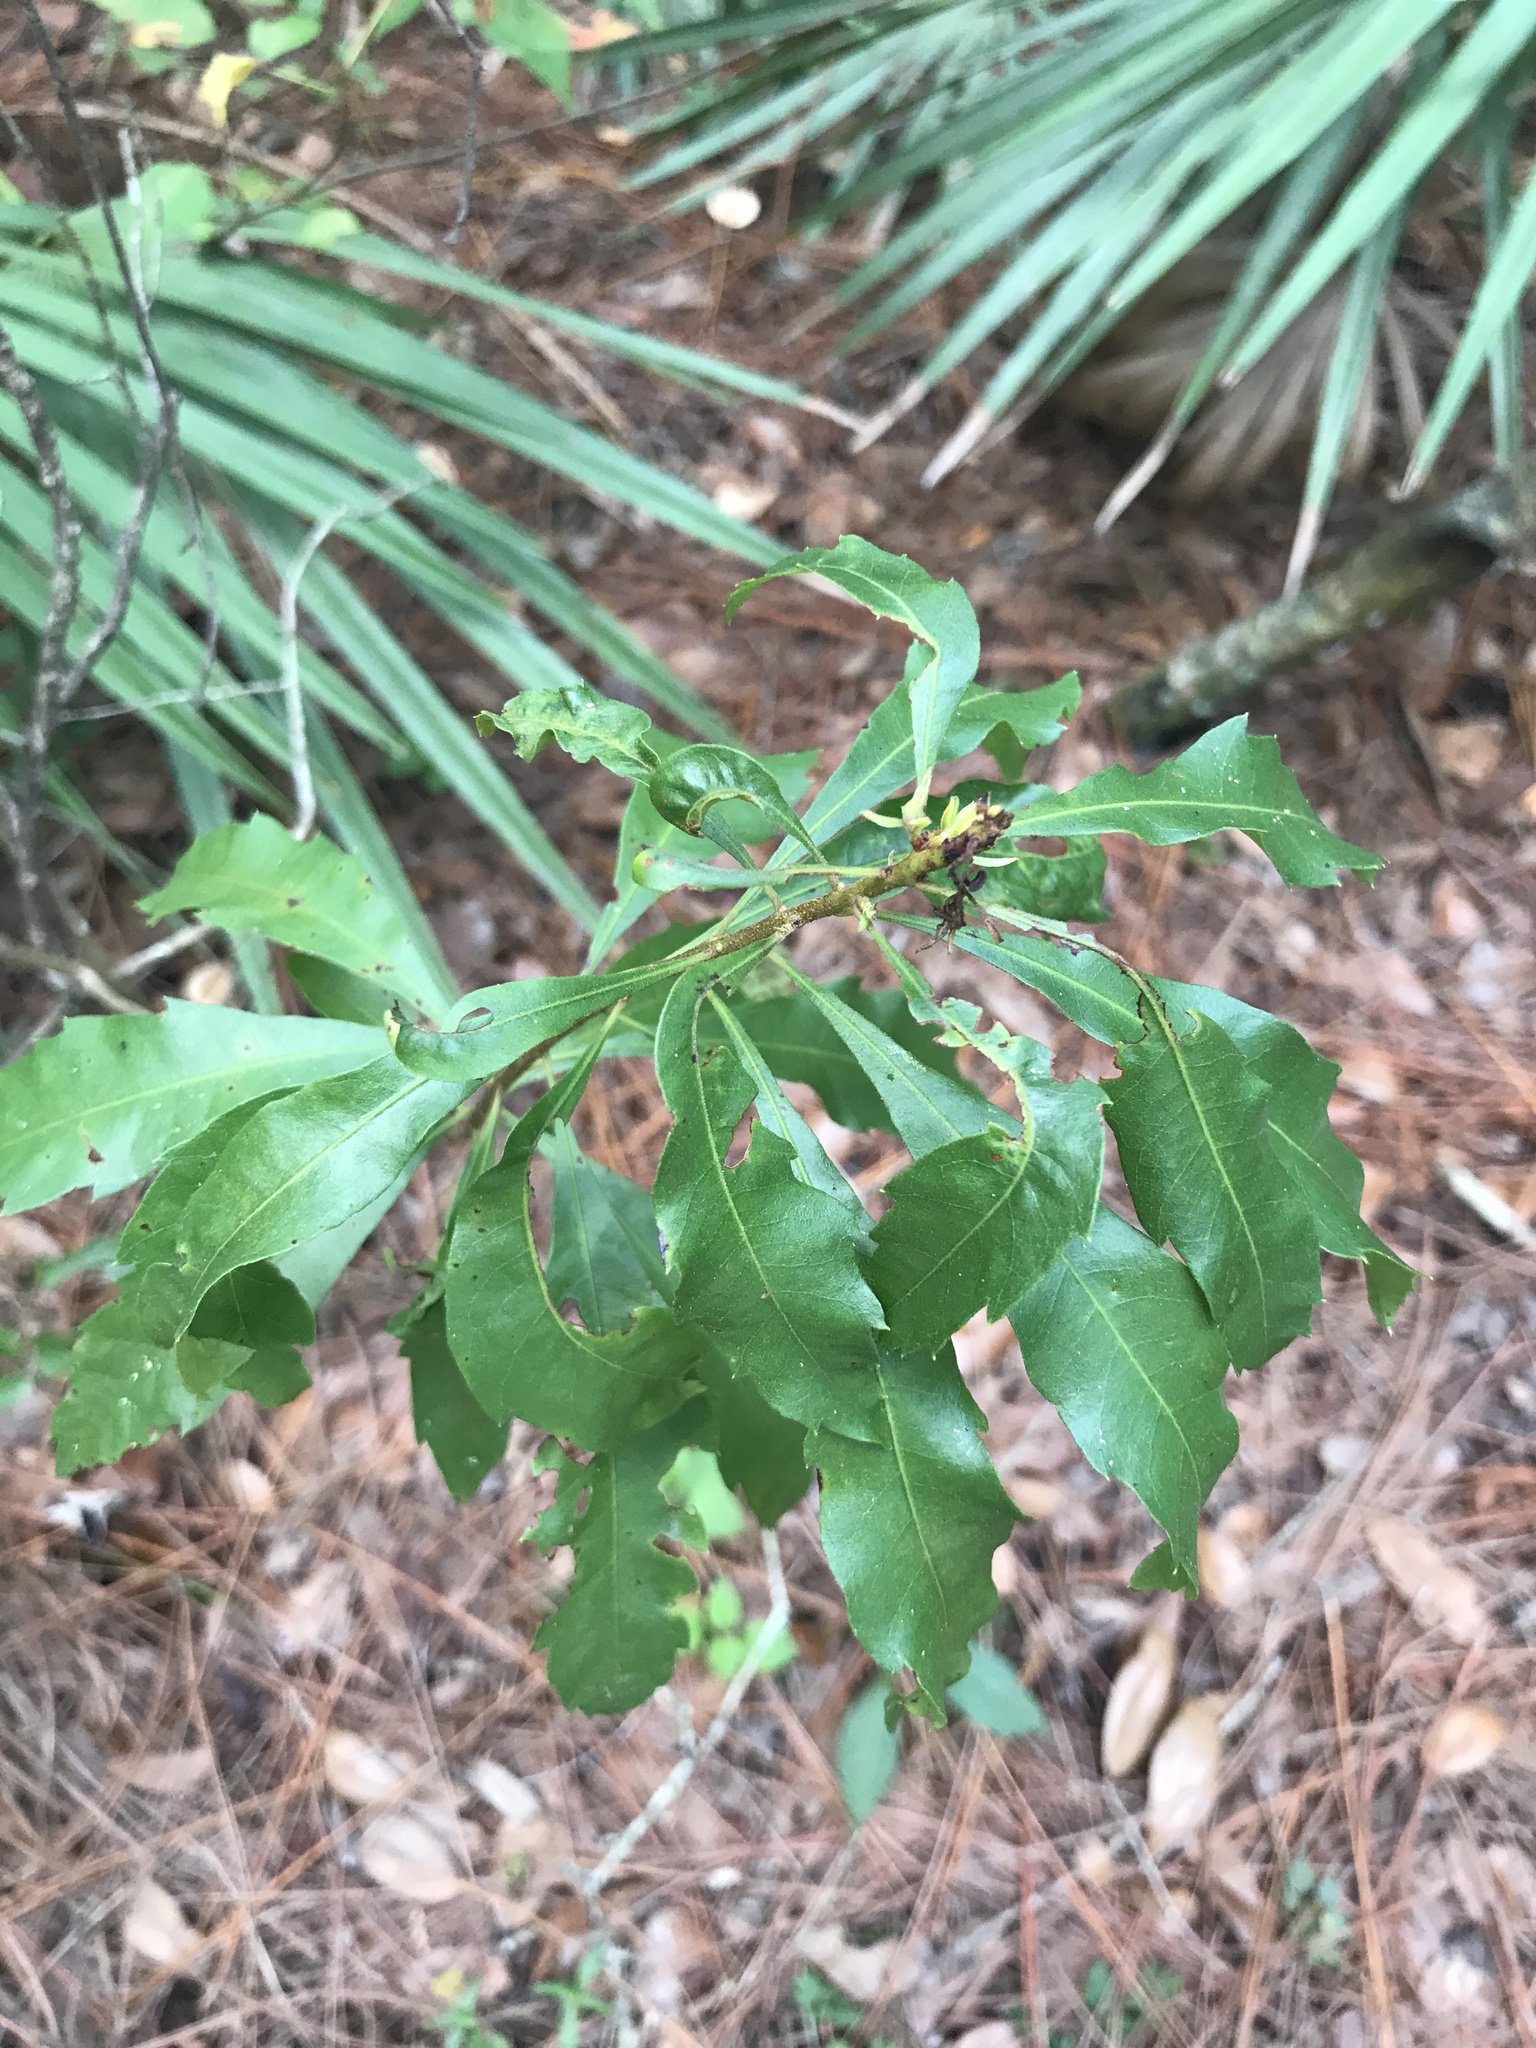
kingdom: Plantae
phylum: Tracheophyta
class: Magnoliopsida
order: Fagales
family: Myricaceae
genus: Morella
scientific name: Morella cerifera
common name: Wax myrtle
